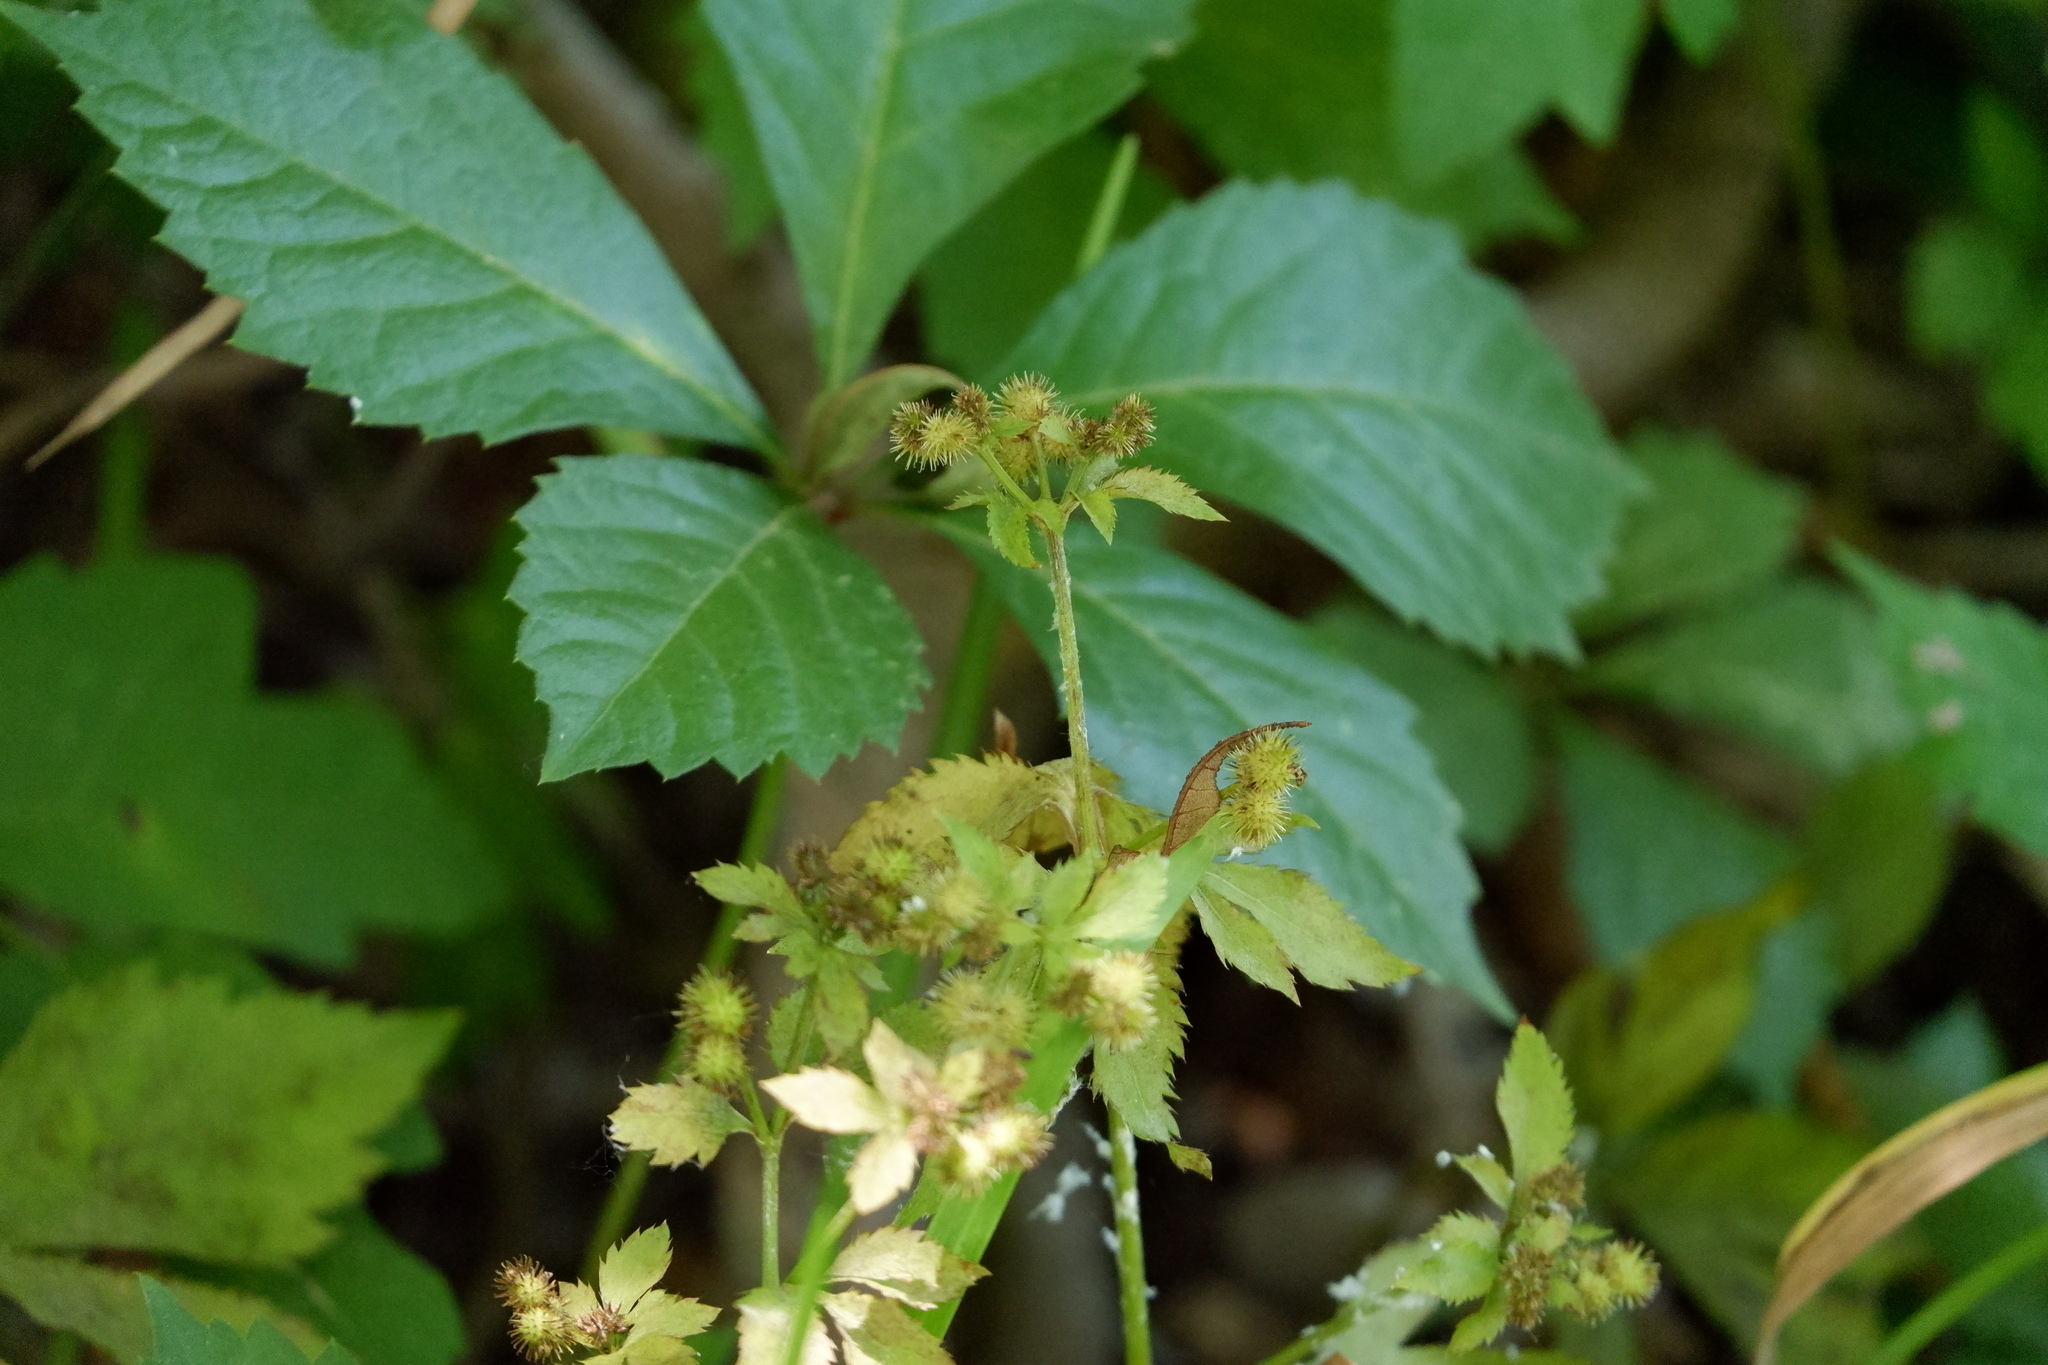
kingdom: Plantae
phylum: Tracheophyta
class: Magnoliopsida
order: Apiales
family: Apiaceae
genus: Sanicula
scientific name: Sanicula canadensis
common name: Canada sanicle
